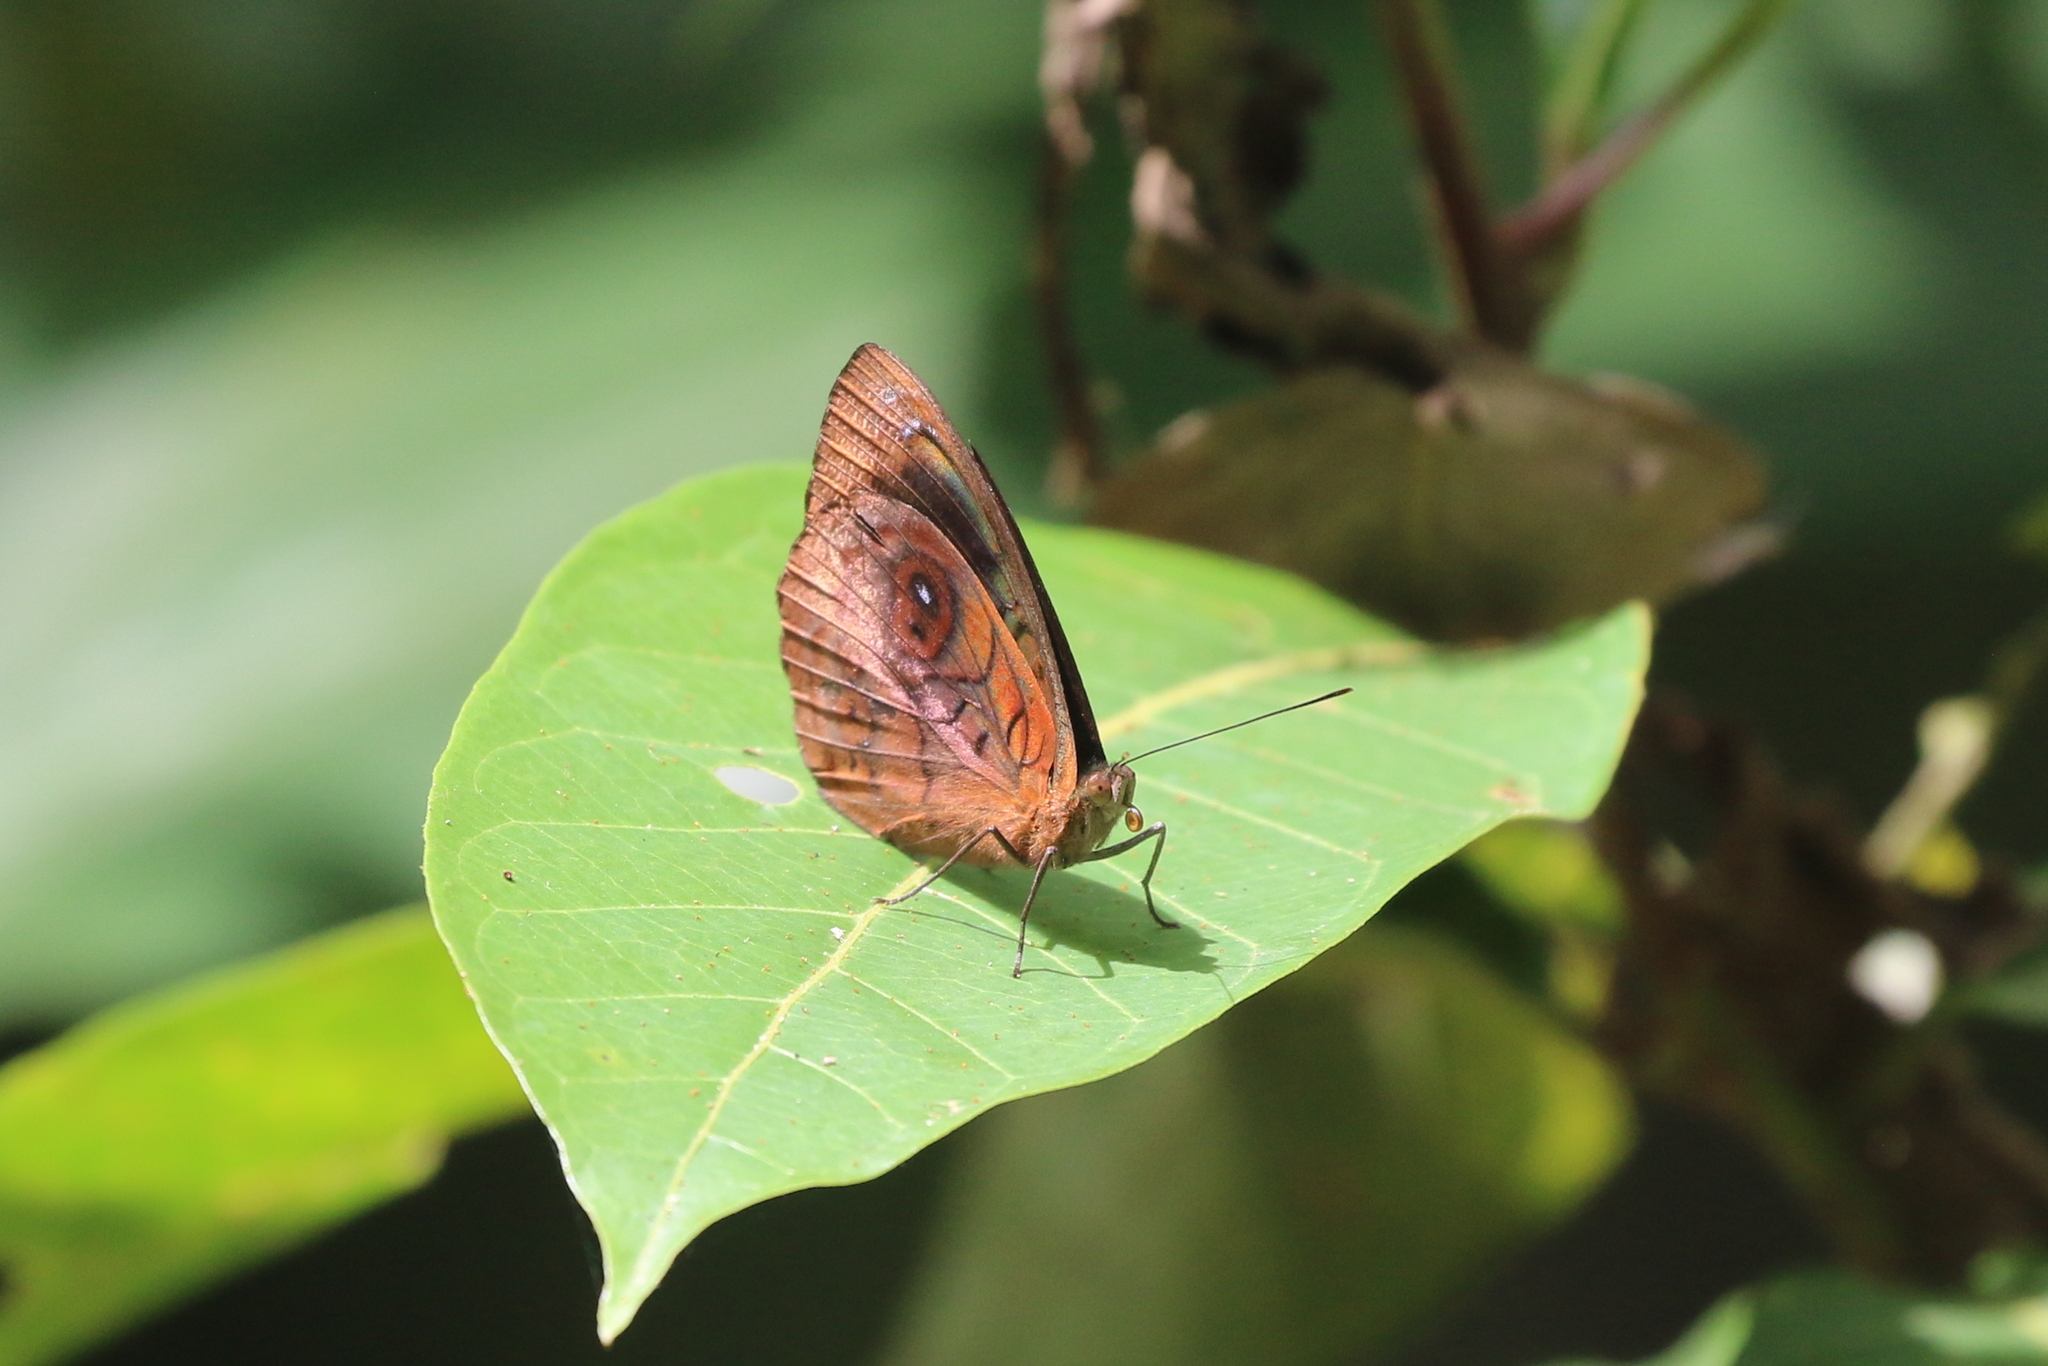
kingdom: Animalia
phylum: Arthropoda
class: Insecta
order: Lepidoptera
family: Nymphalidae
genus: Eunica
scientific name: Eunica cabira
